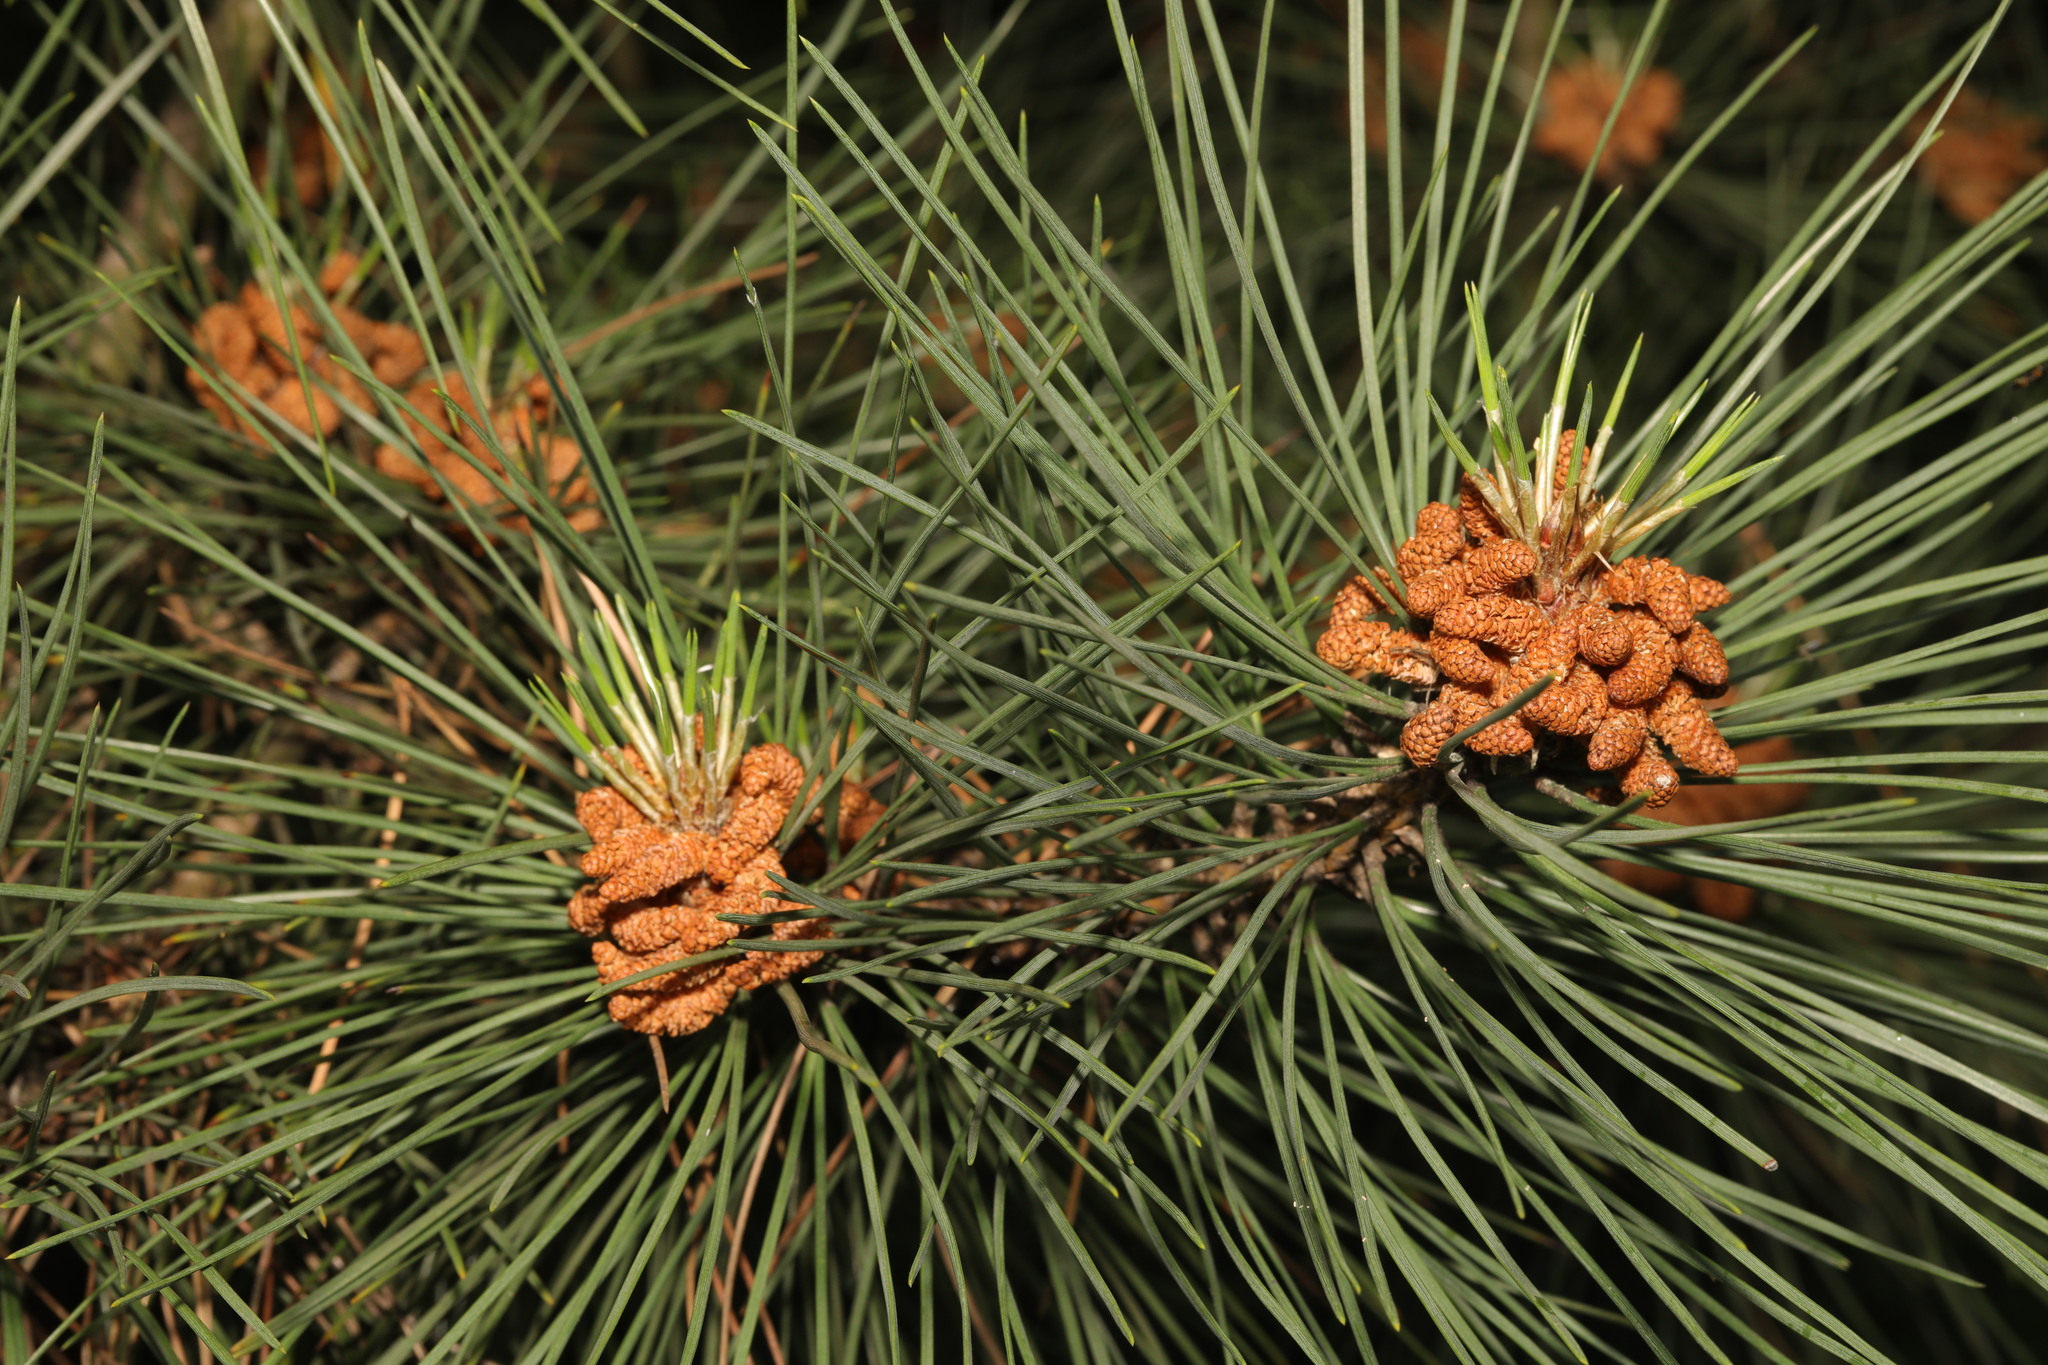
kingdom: Plantae
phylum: Tracheophyta
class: Pinopsida
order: Pinales
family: Pinaceae
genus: Pinus
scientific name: Pinus sylvestris
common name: Scots pine
